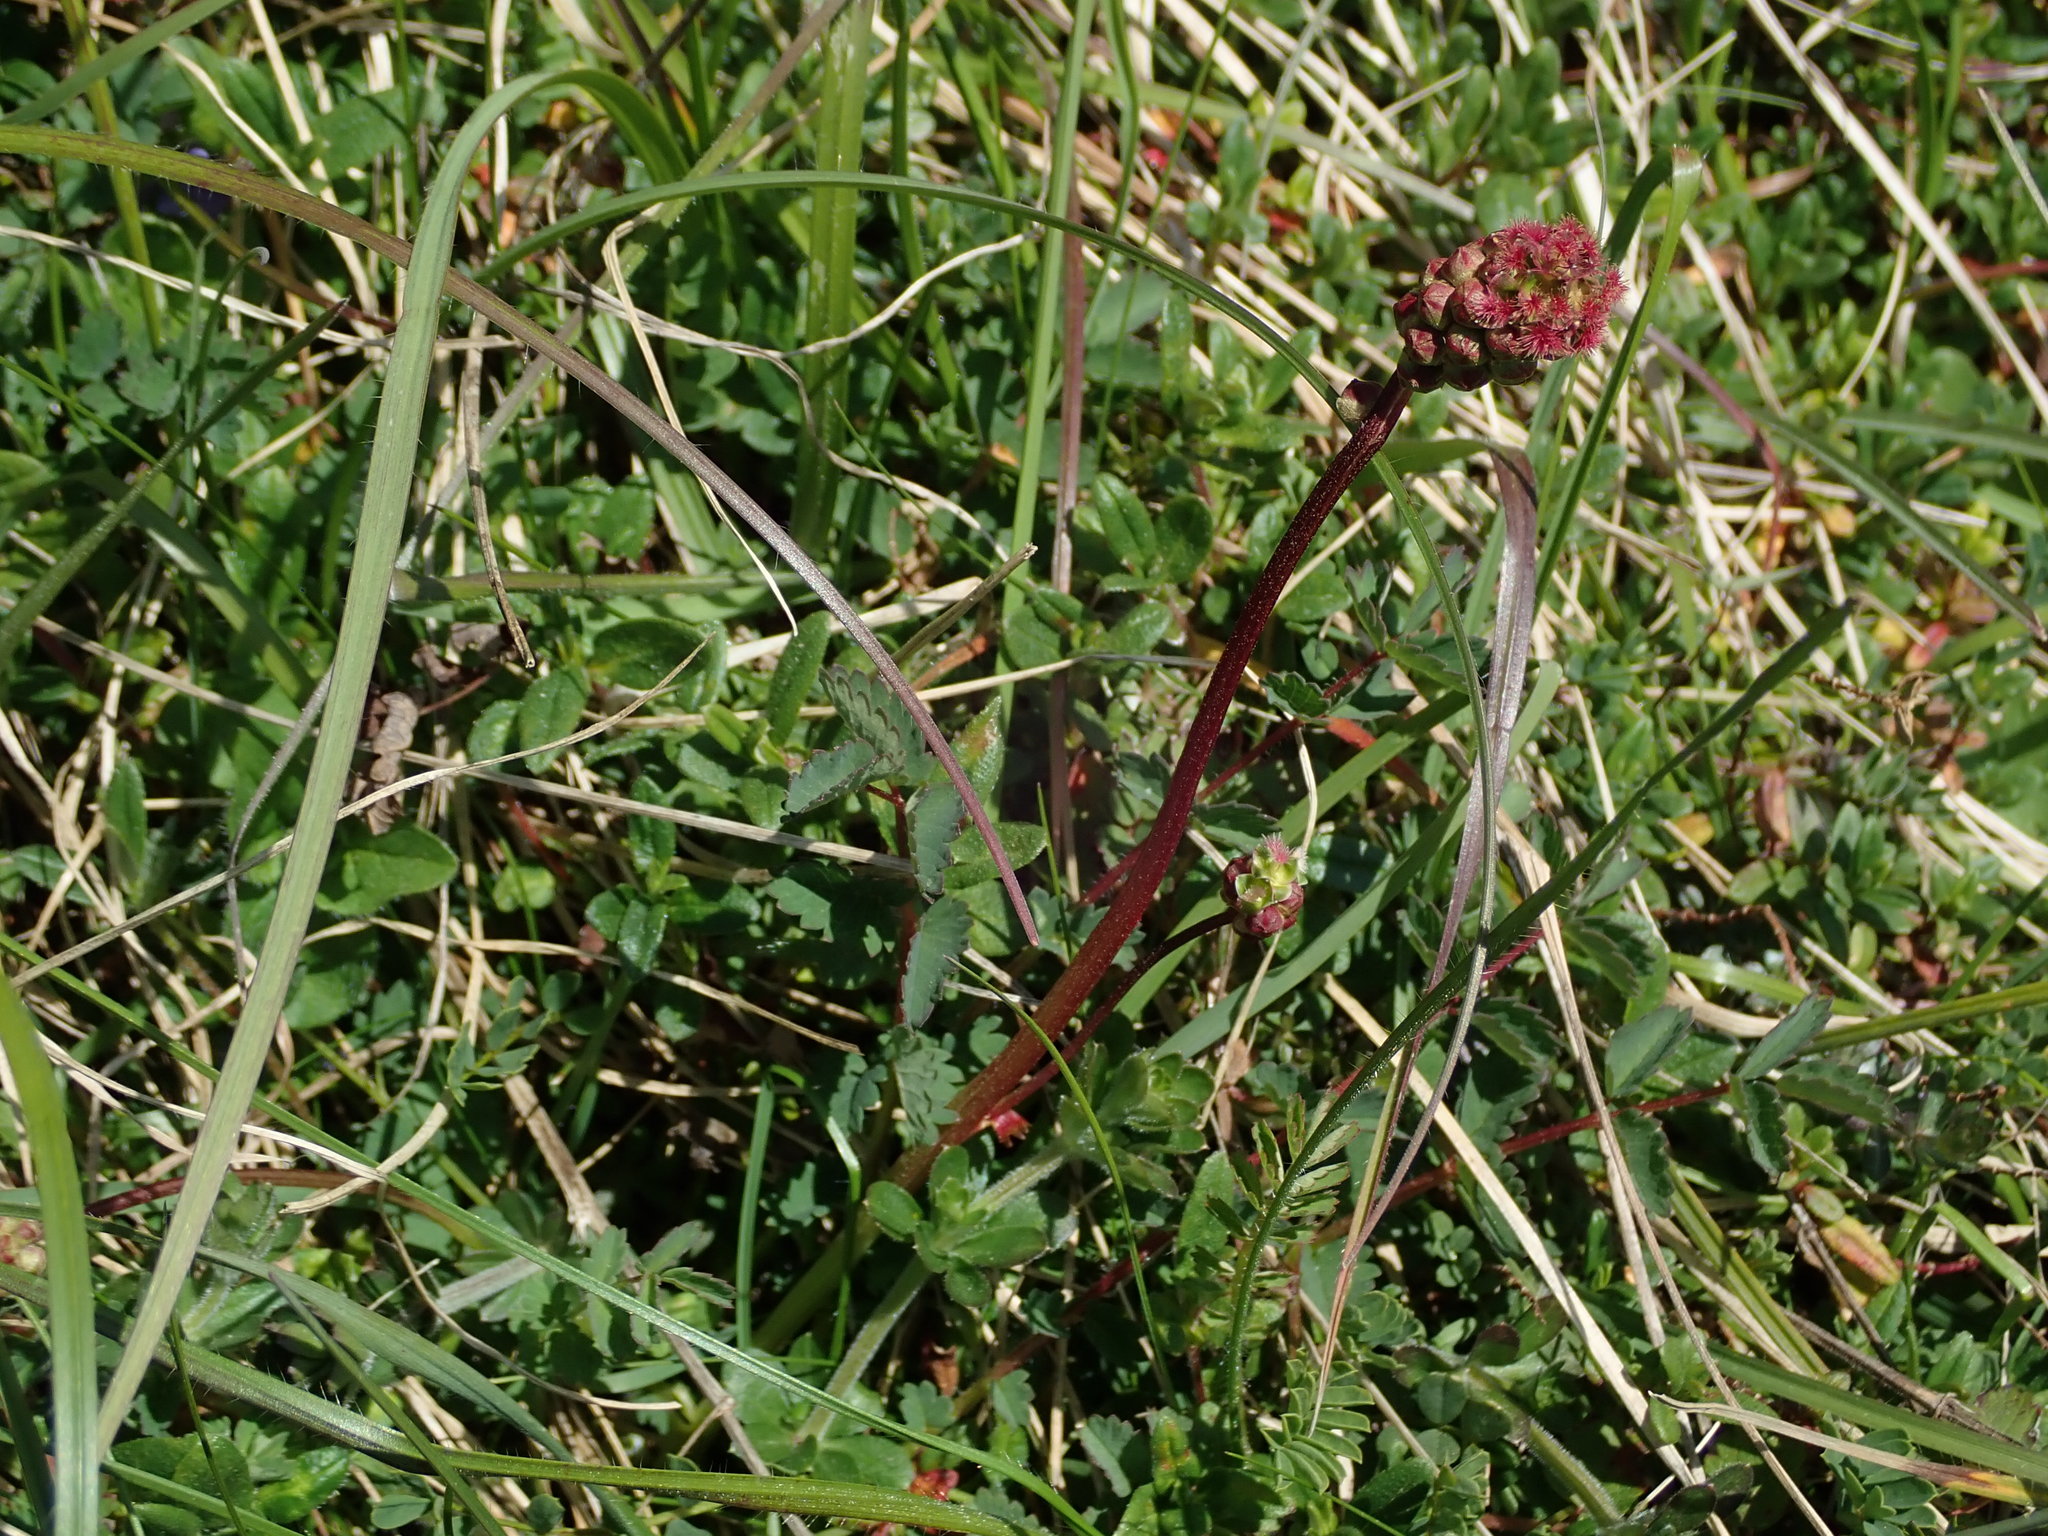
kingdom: Plantae
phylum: Tracheophyta
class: Magnoliopsida
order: Rosales
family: Rosaceae
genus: Poterium
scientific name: Poterium sanguisorba
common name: Salad burnet
